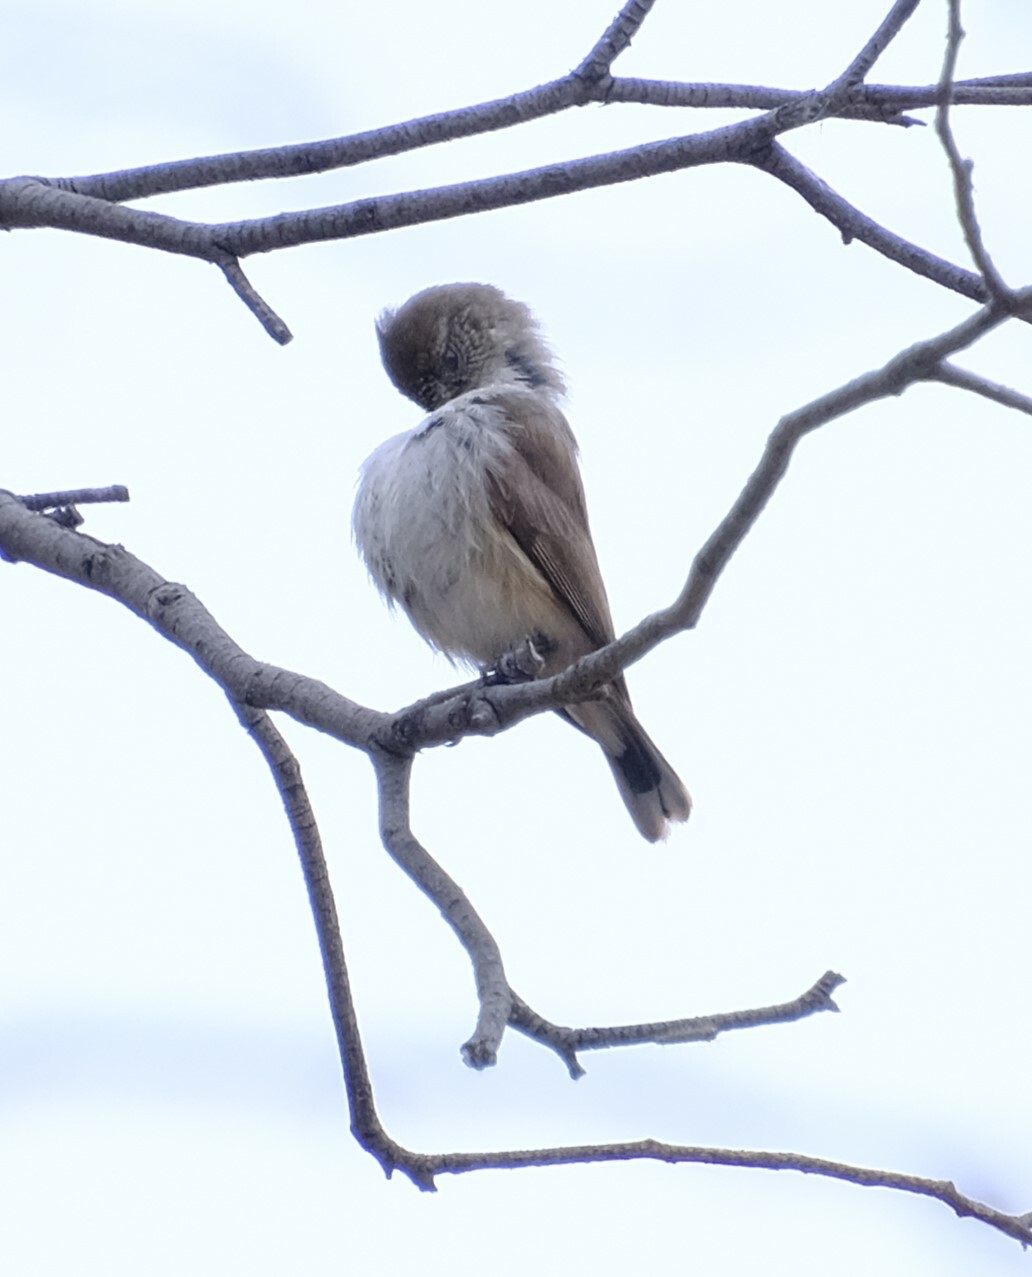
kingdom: Animalia
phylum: Chordata
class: Aves
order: Passeriformes
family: Acanthizidae
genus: Acanthiza
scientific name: Acanthiza uropygialis
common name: Chestnut-rumped thornbill
